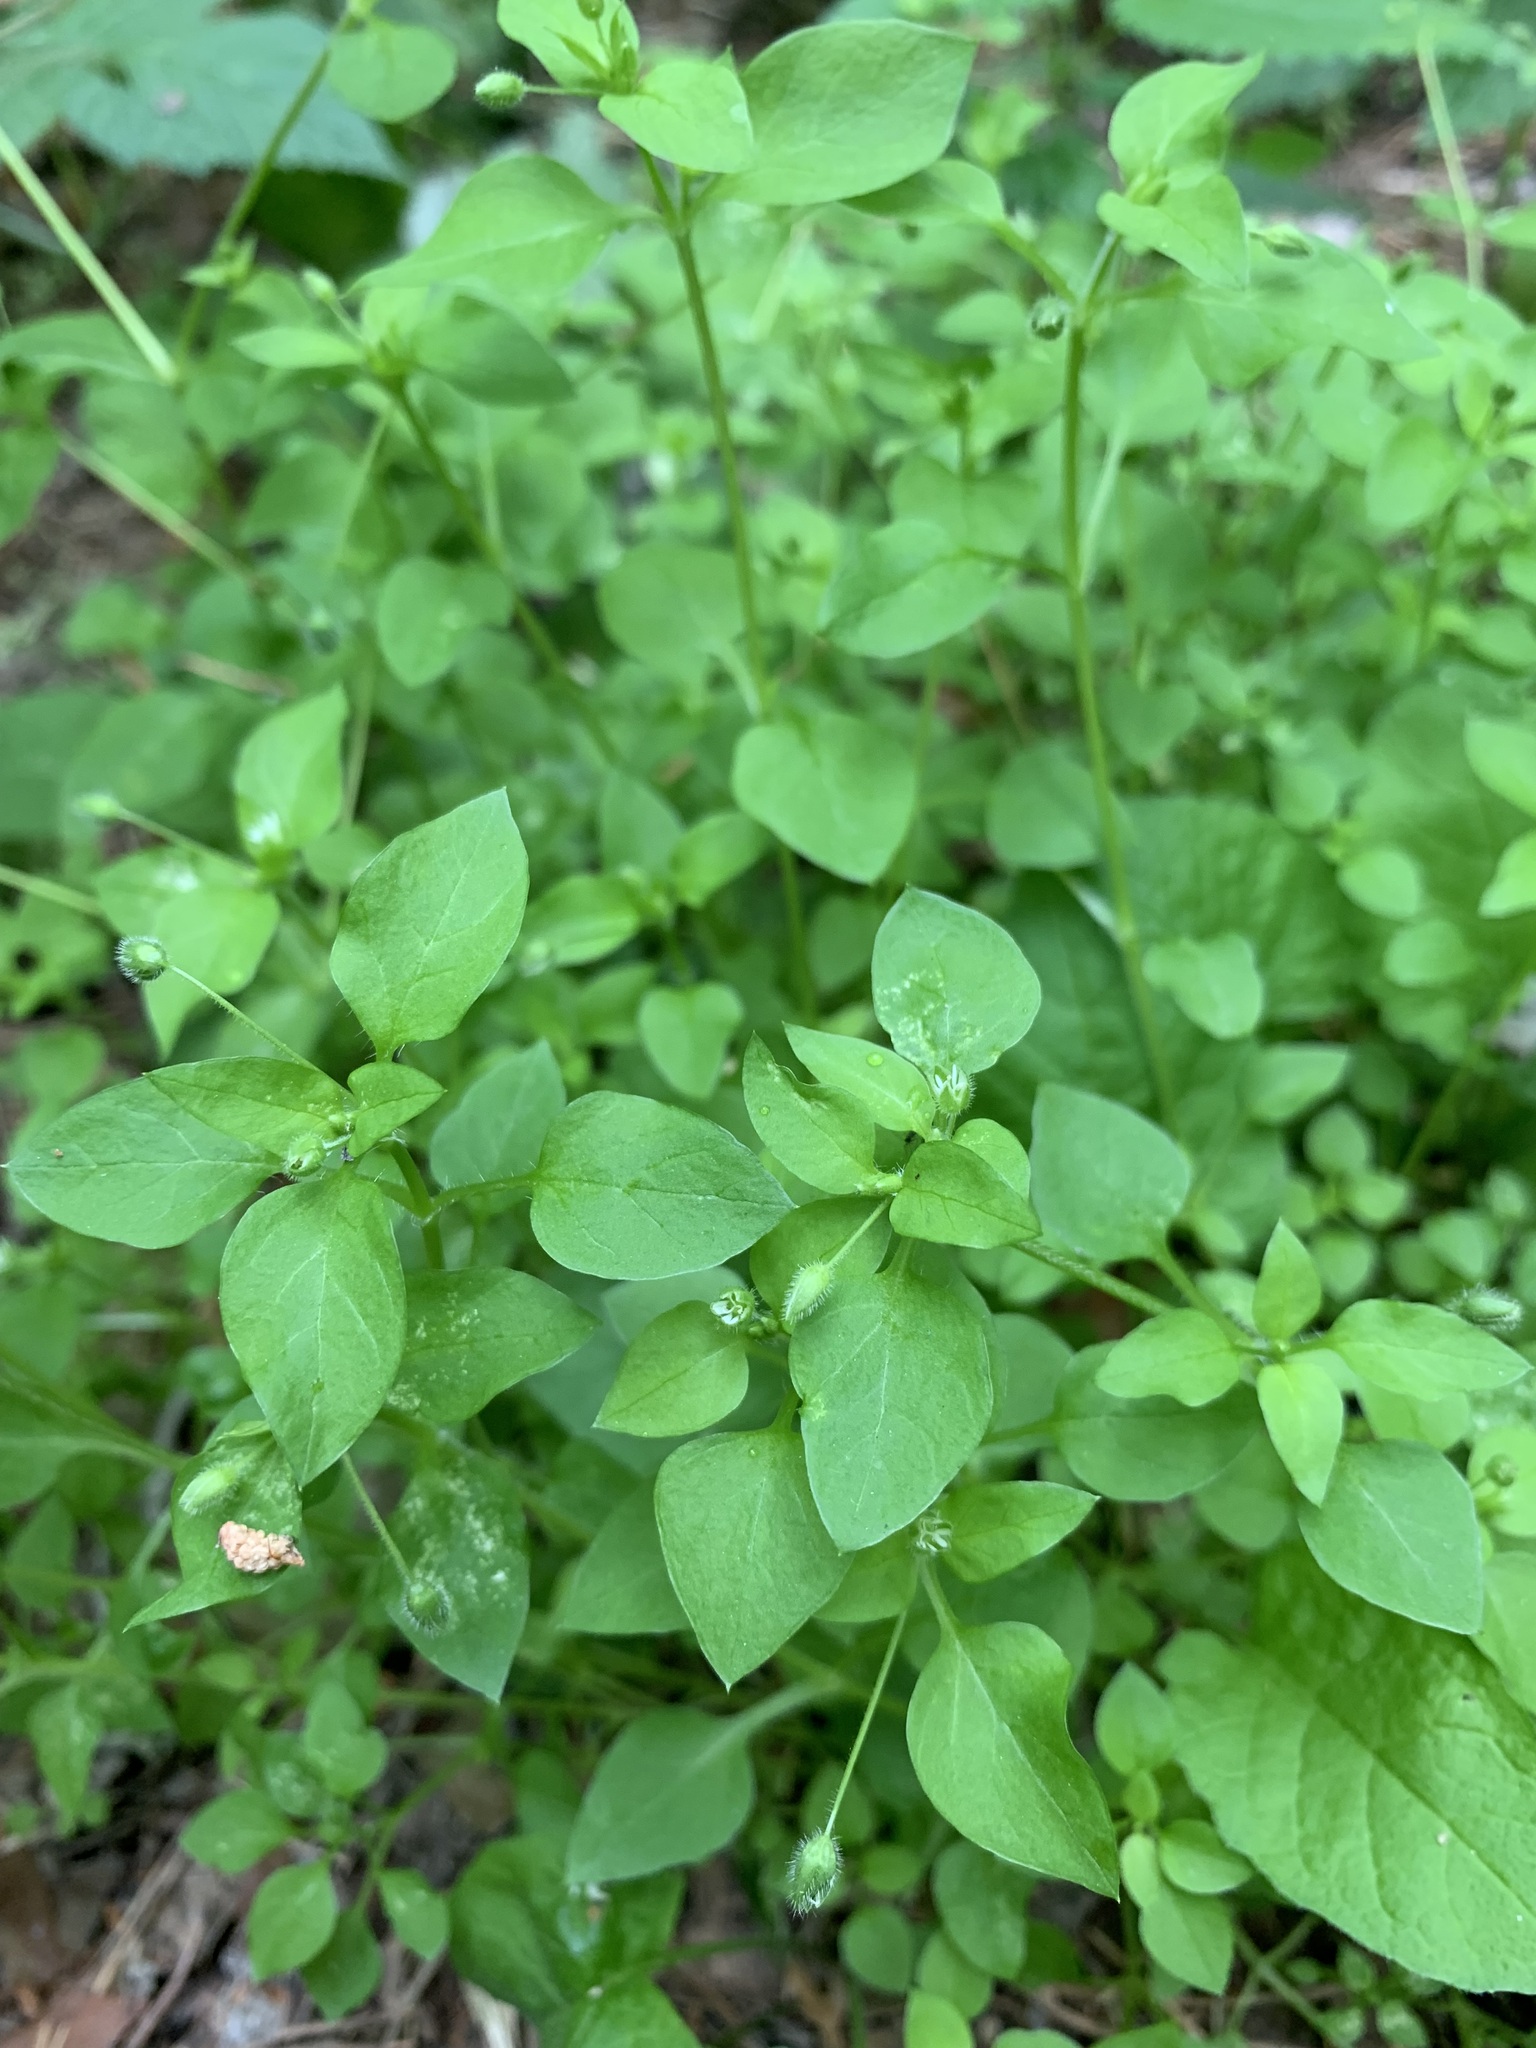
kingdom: Plantae
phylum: Tracheophyta
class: Magnoliopsida
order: Caryophyllales
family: Caryophyllaceae
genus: Stellaria
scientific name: Stellaria media
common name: Common chickweed
